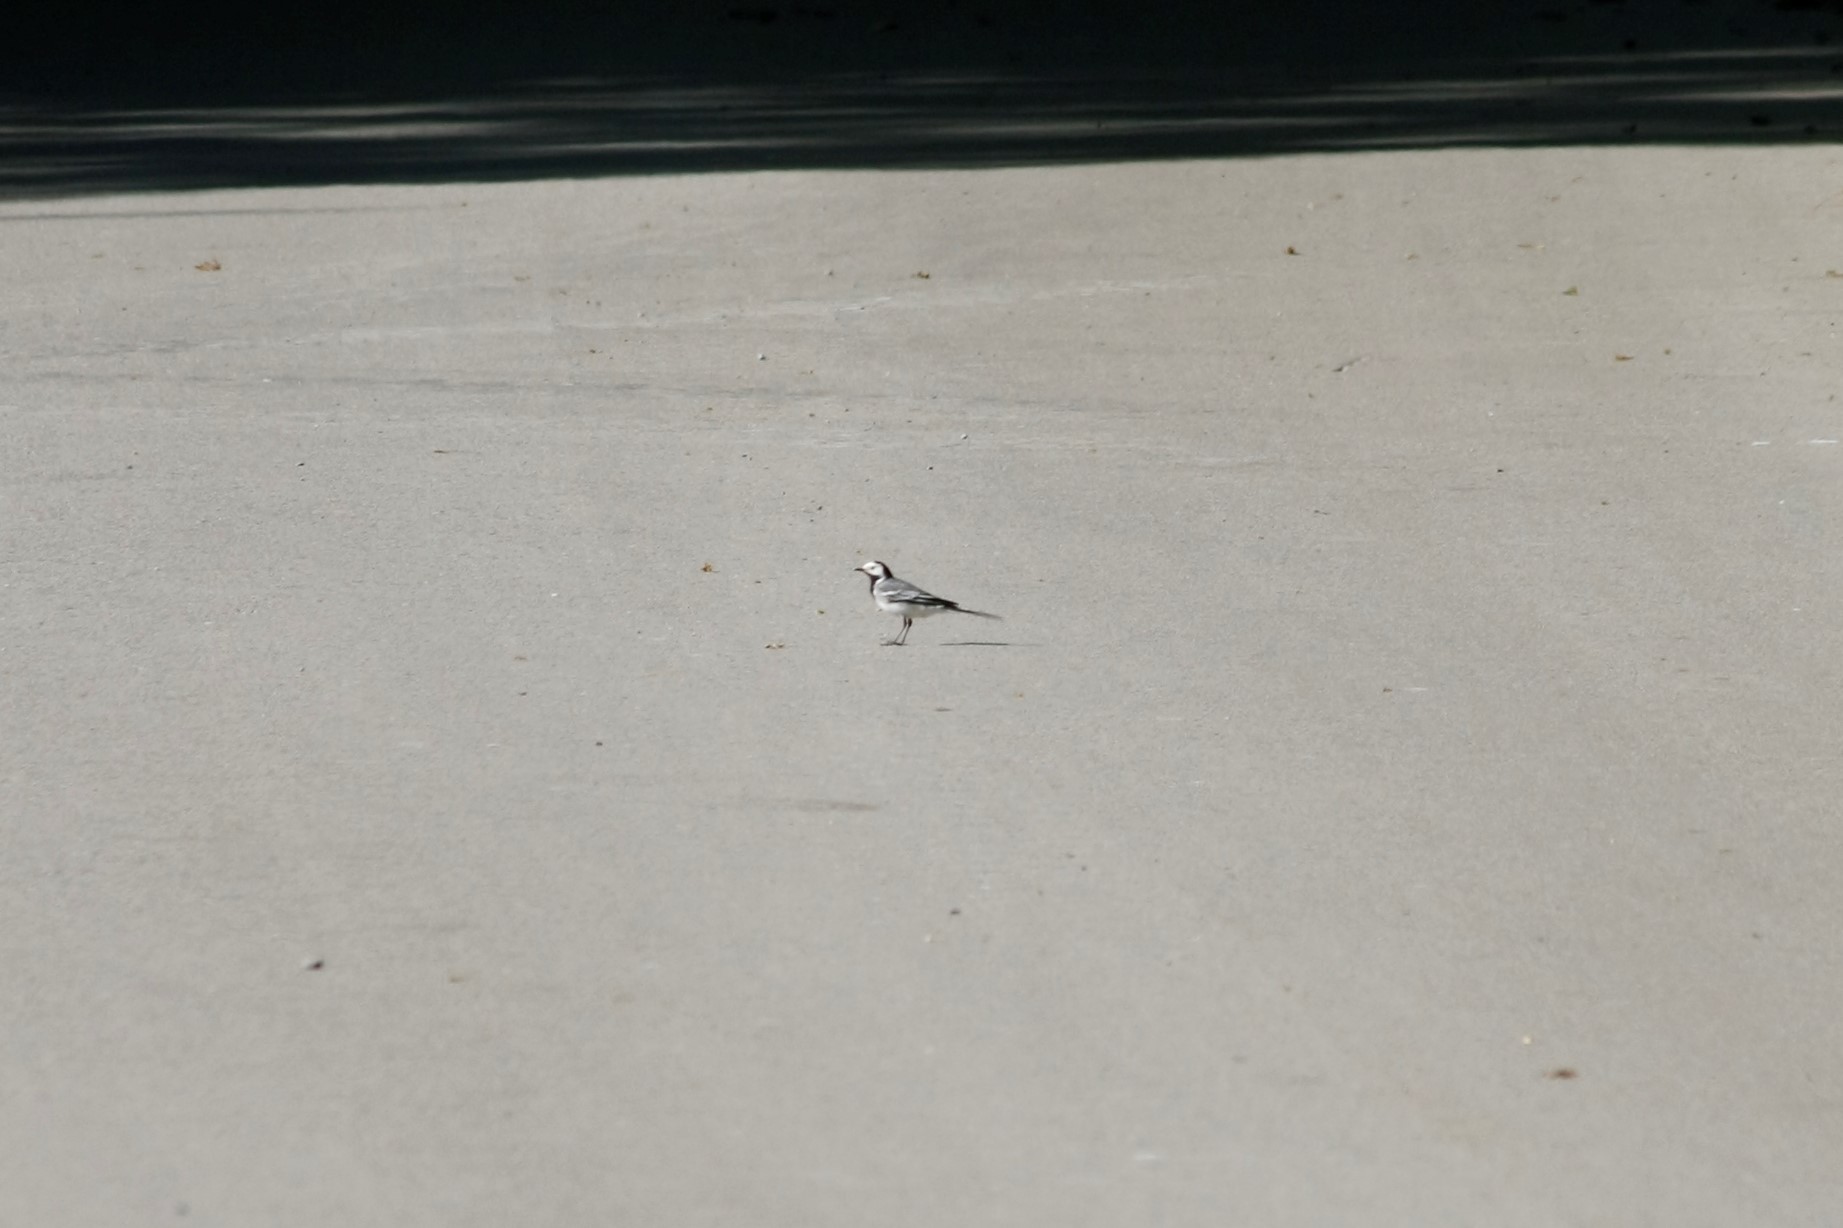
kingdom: Animalia
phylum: Chordata
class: Aves
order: Passeriformes
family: Motacillidae
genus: Motacilla
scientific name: Motacilla alba
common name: White wagtail
